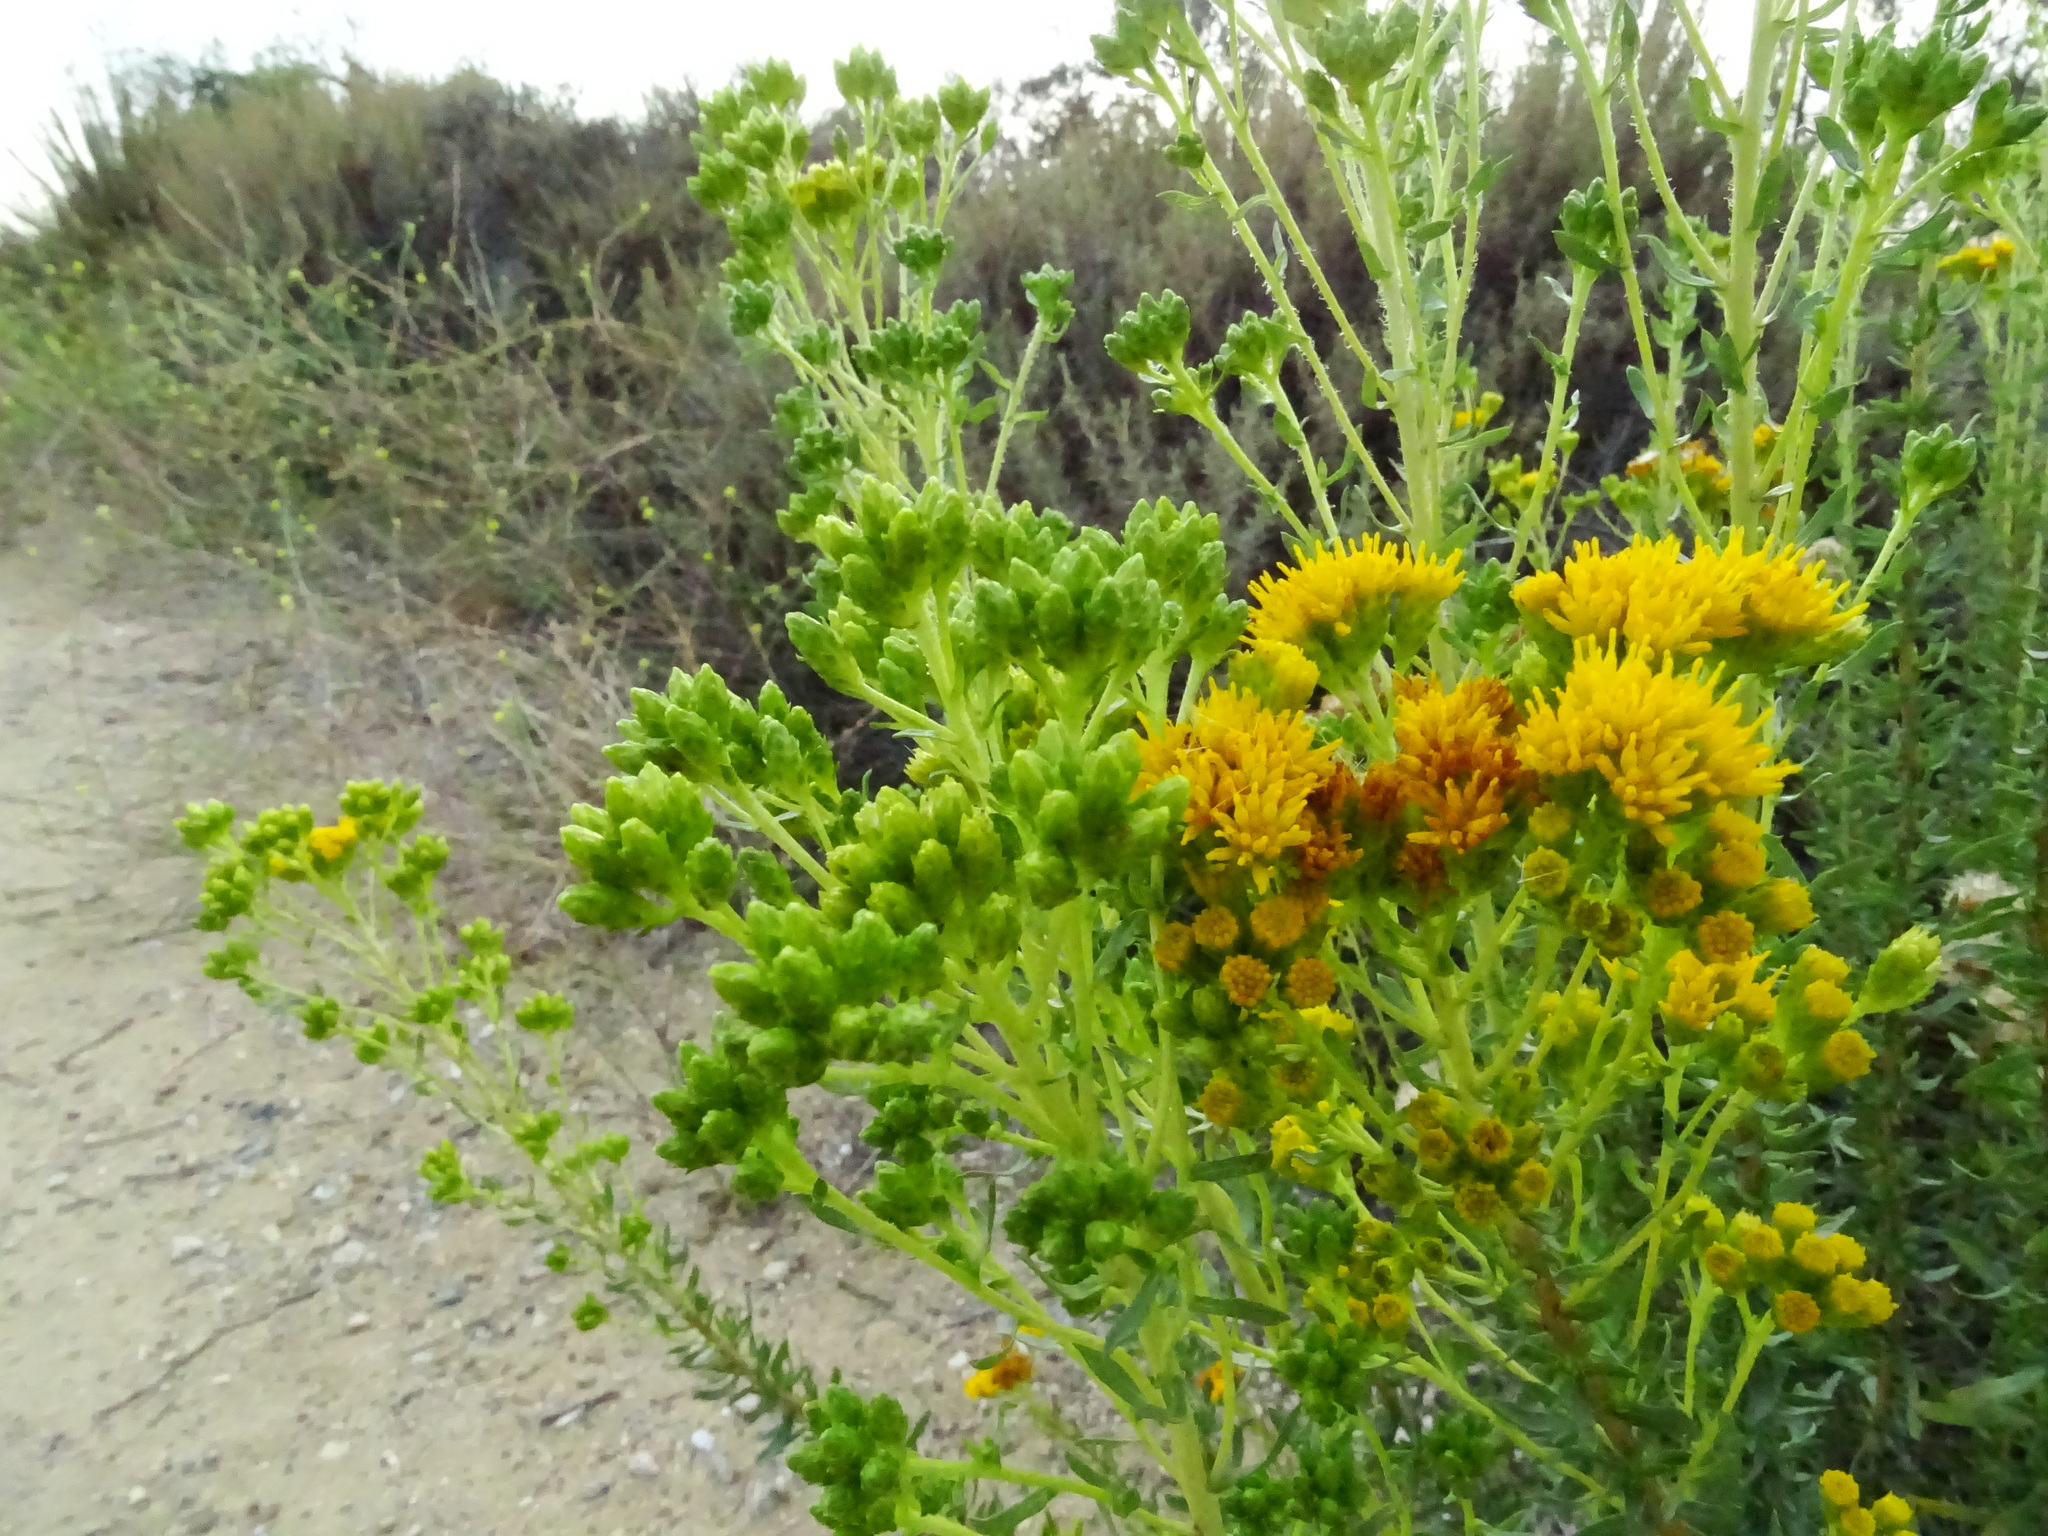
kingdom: Plantae
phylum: Tracheophyta
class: Magnoliopsida
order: Asterales
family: Asteraceae
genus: Isocoma
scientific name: Isocoma menziesii
